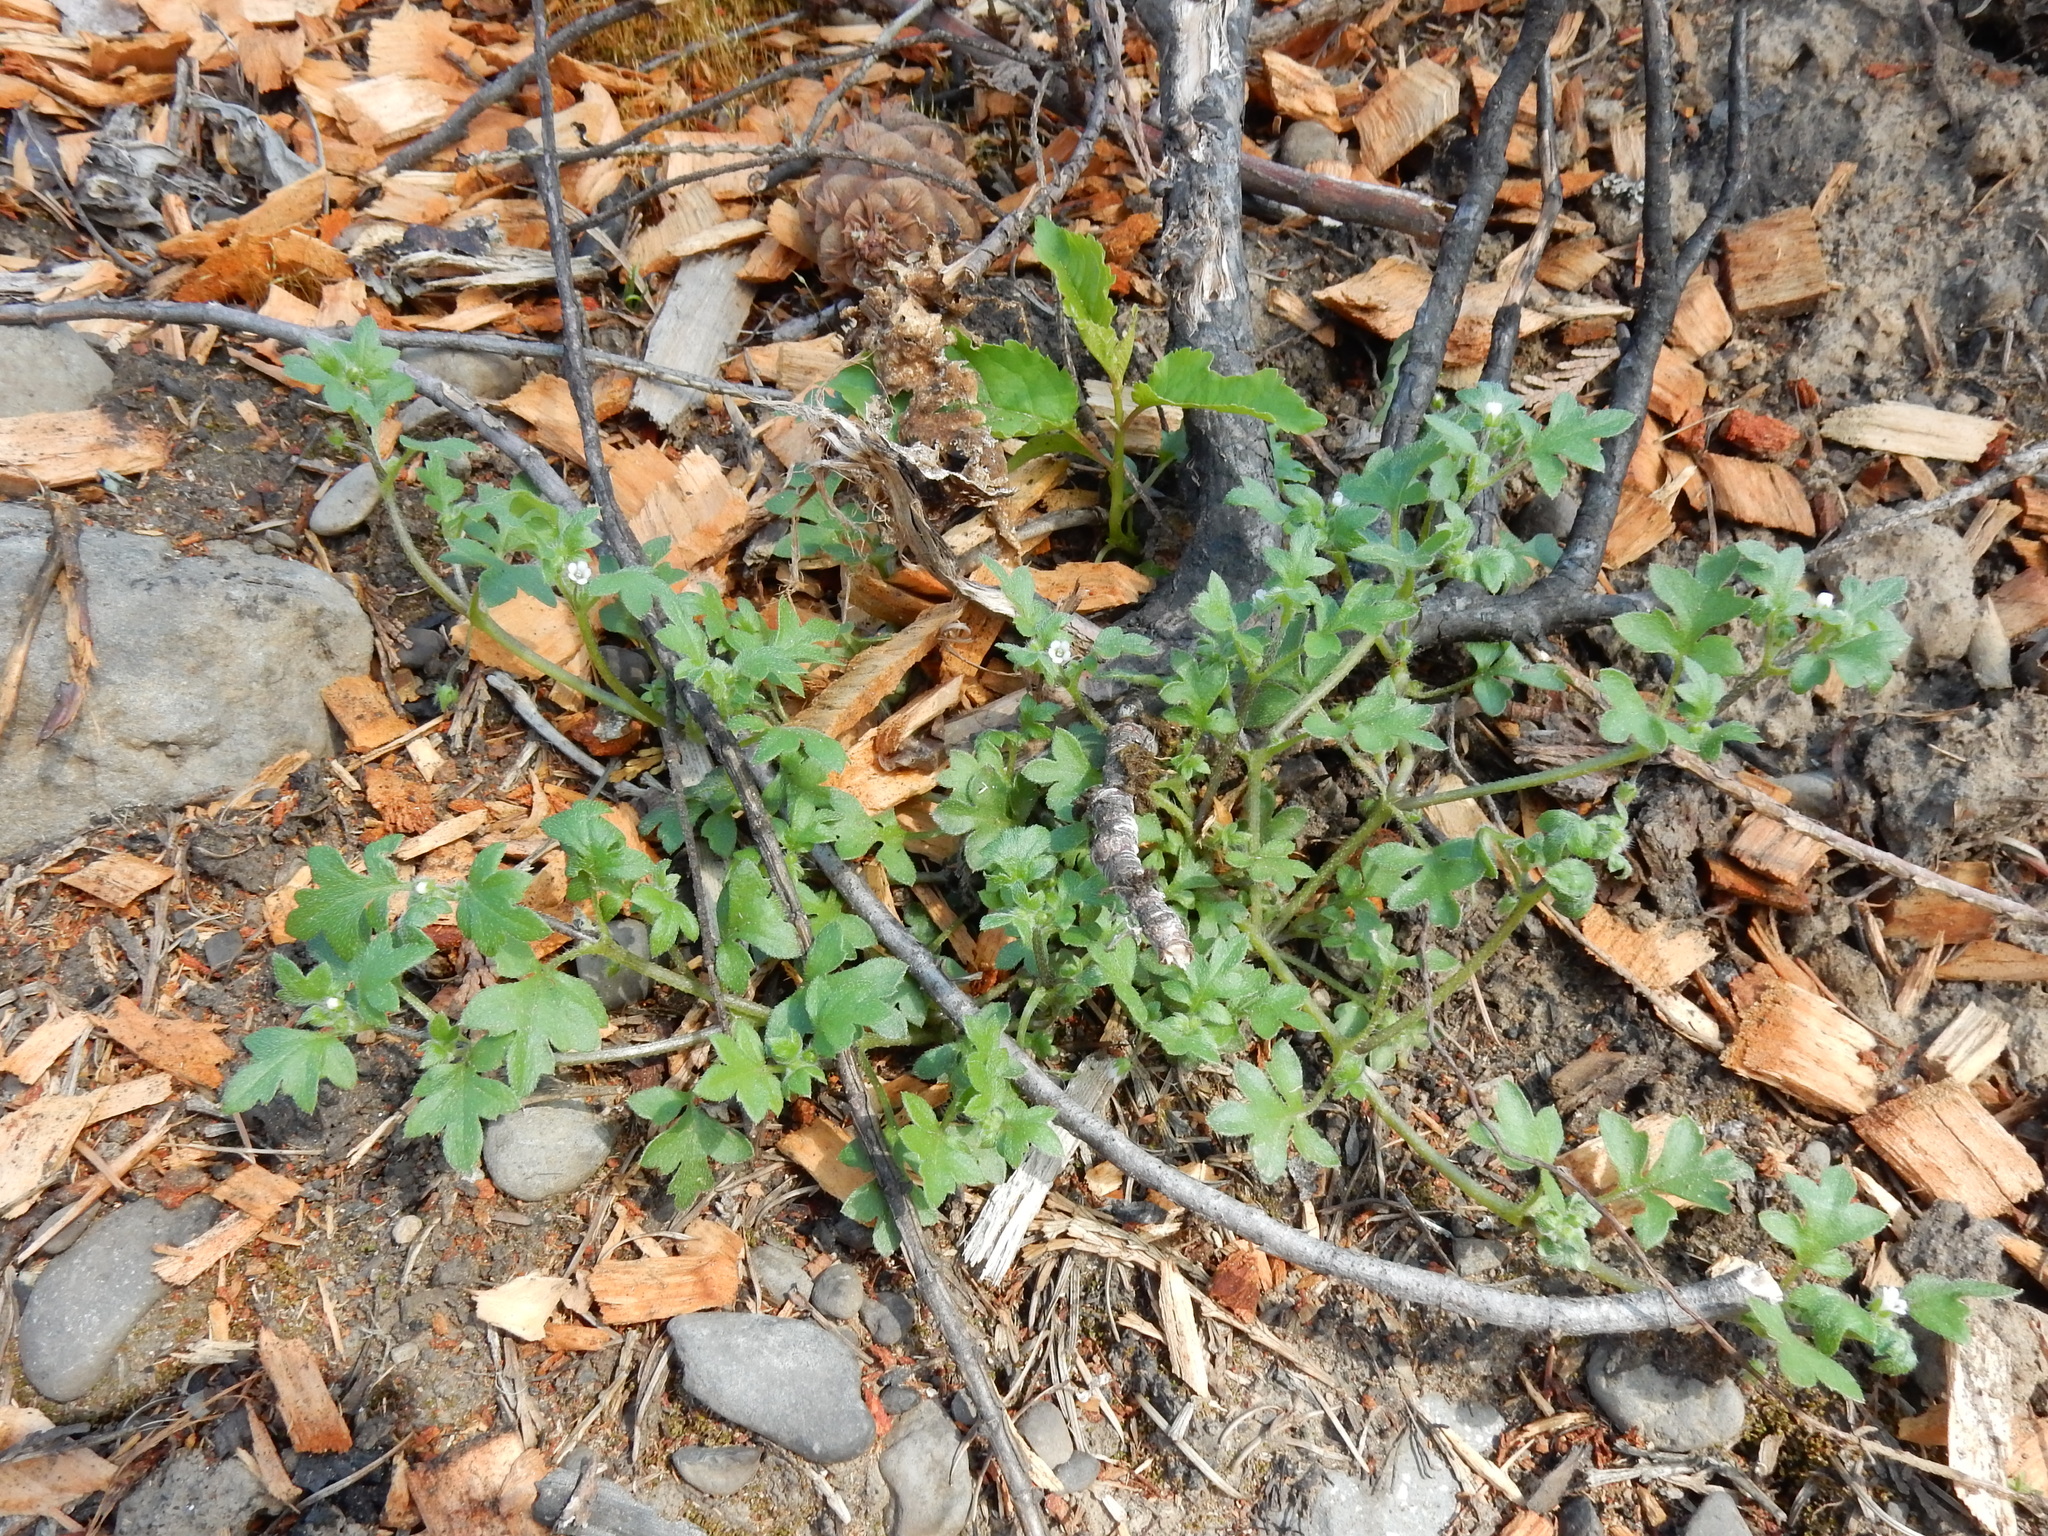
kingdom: Plantae
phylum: Tracheophyta
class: Magnoliopsida
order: Boraginales
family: Hydrophyllaceae
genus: Nemophila
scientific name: Nemophila parviflora
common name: Small-flowered baby-blue-eyes
